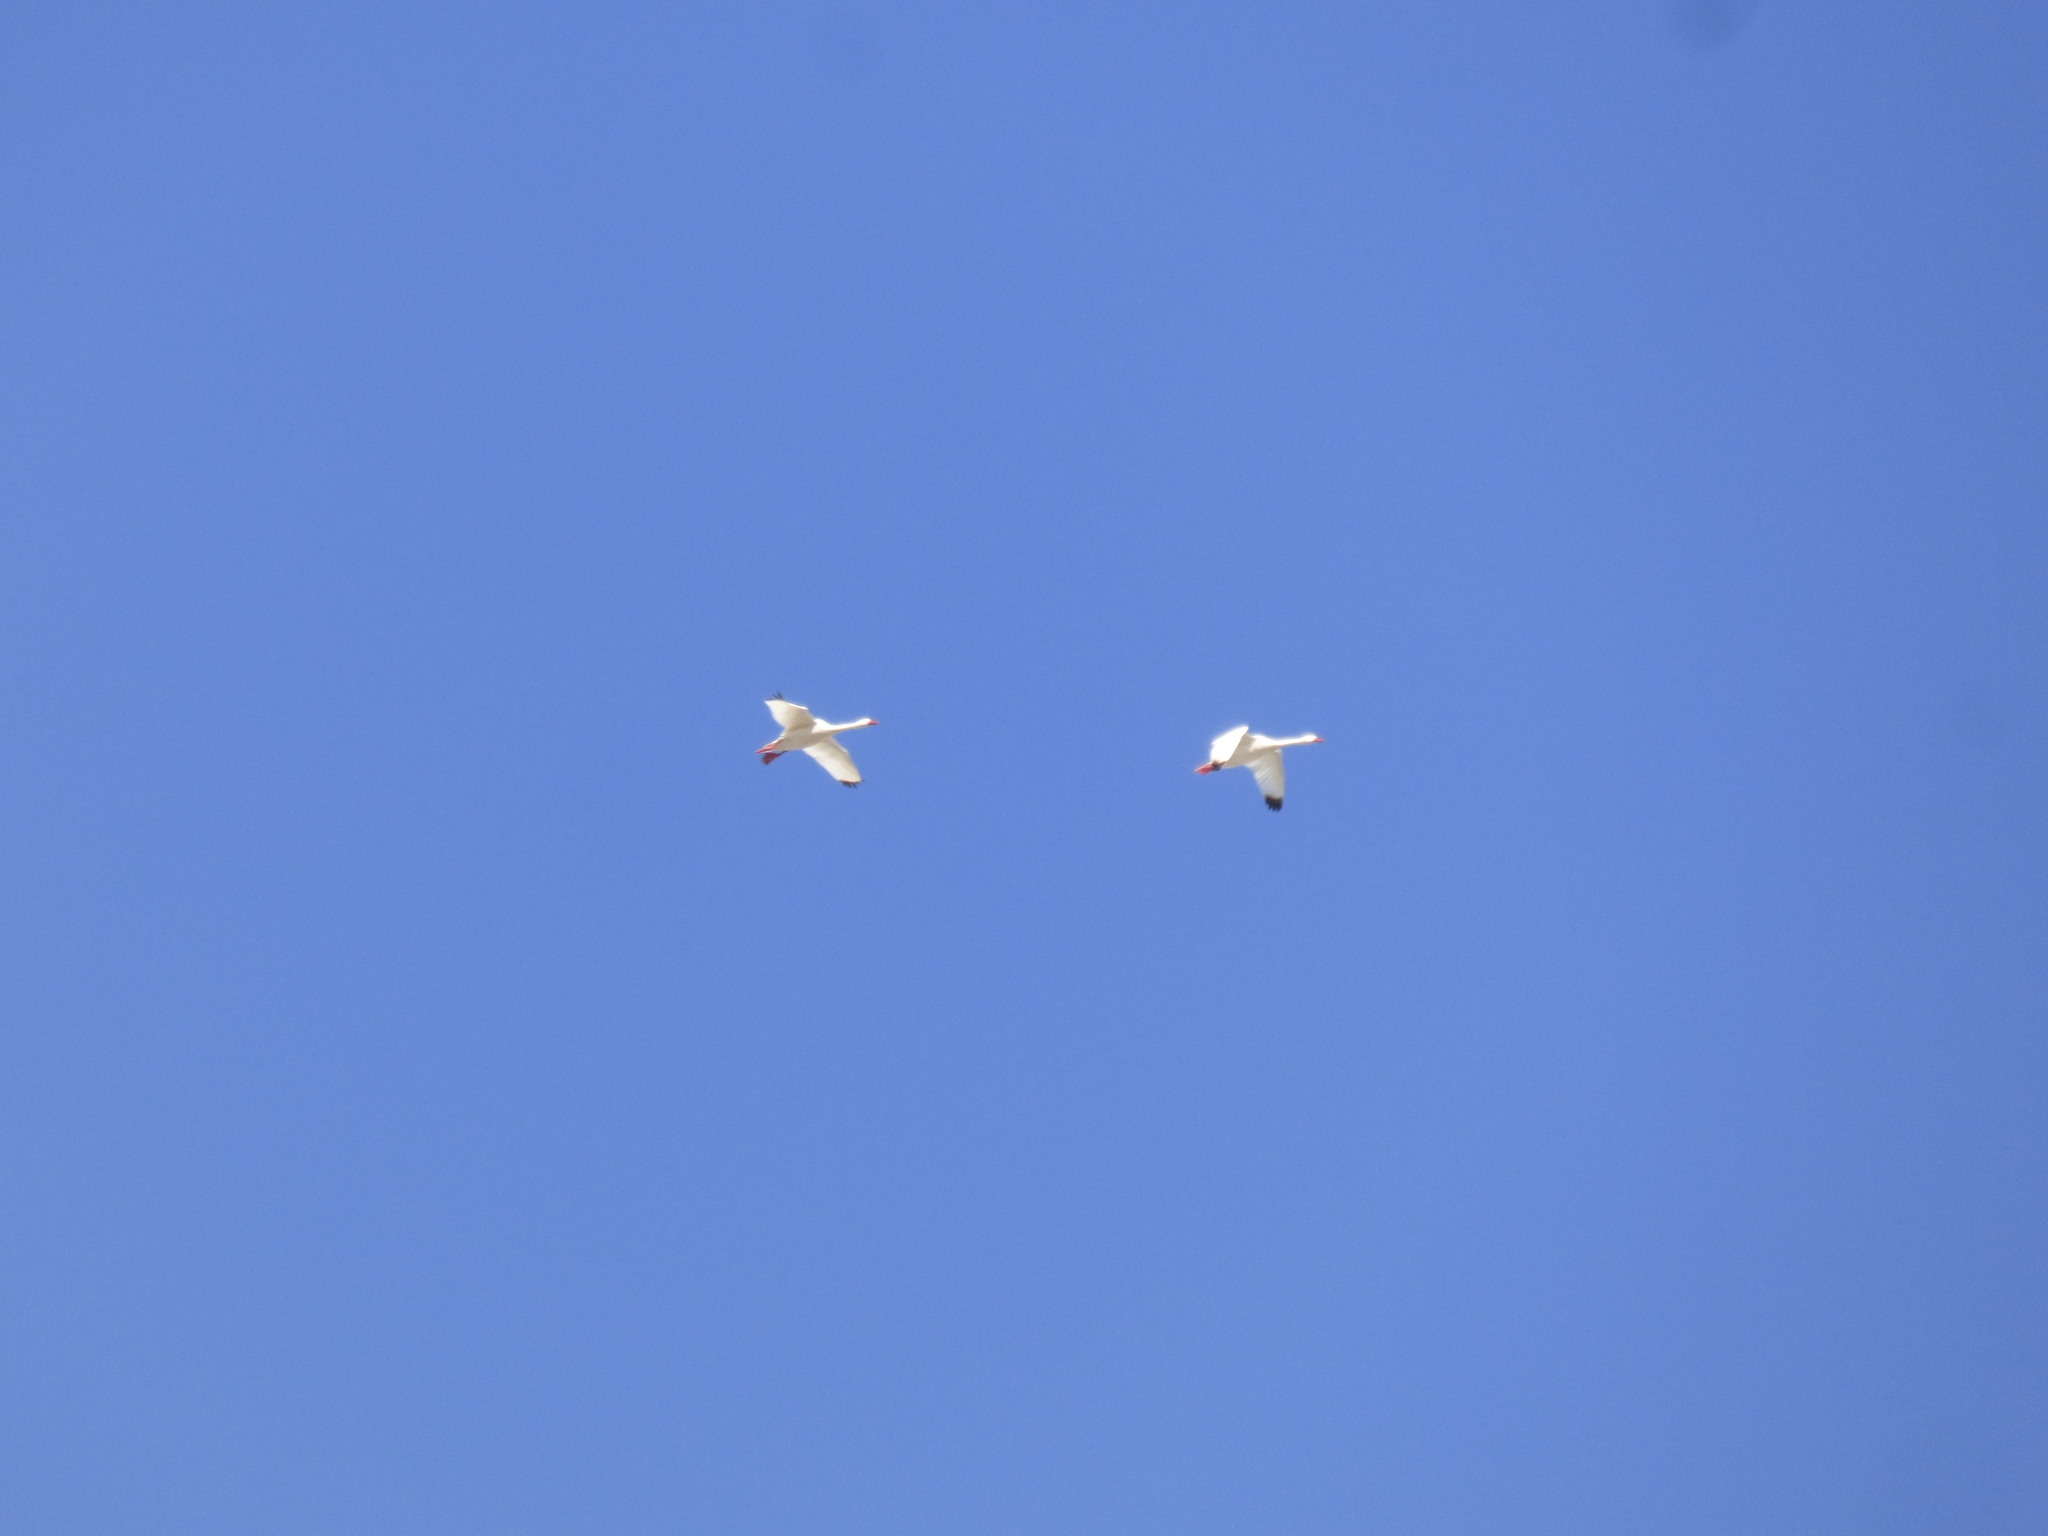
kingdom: Animalia
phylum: Chordata
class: Aves
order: Anseriformes
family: Anatidae
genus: Coscoroba
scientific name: Coscoroba coscoroba
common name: Coscoroba swan
